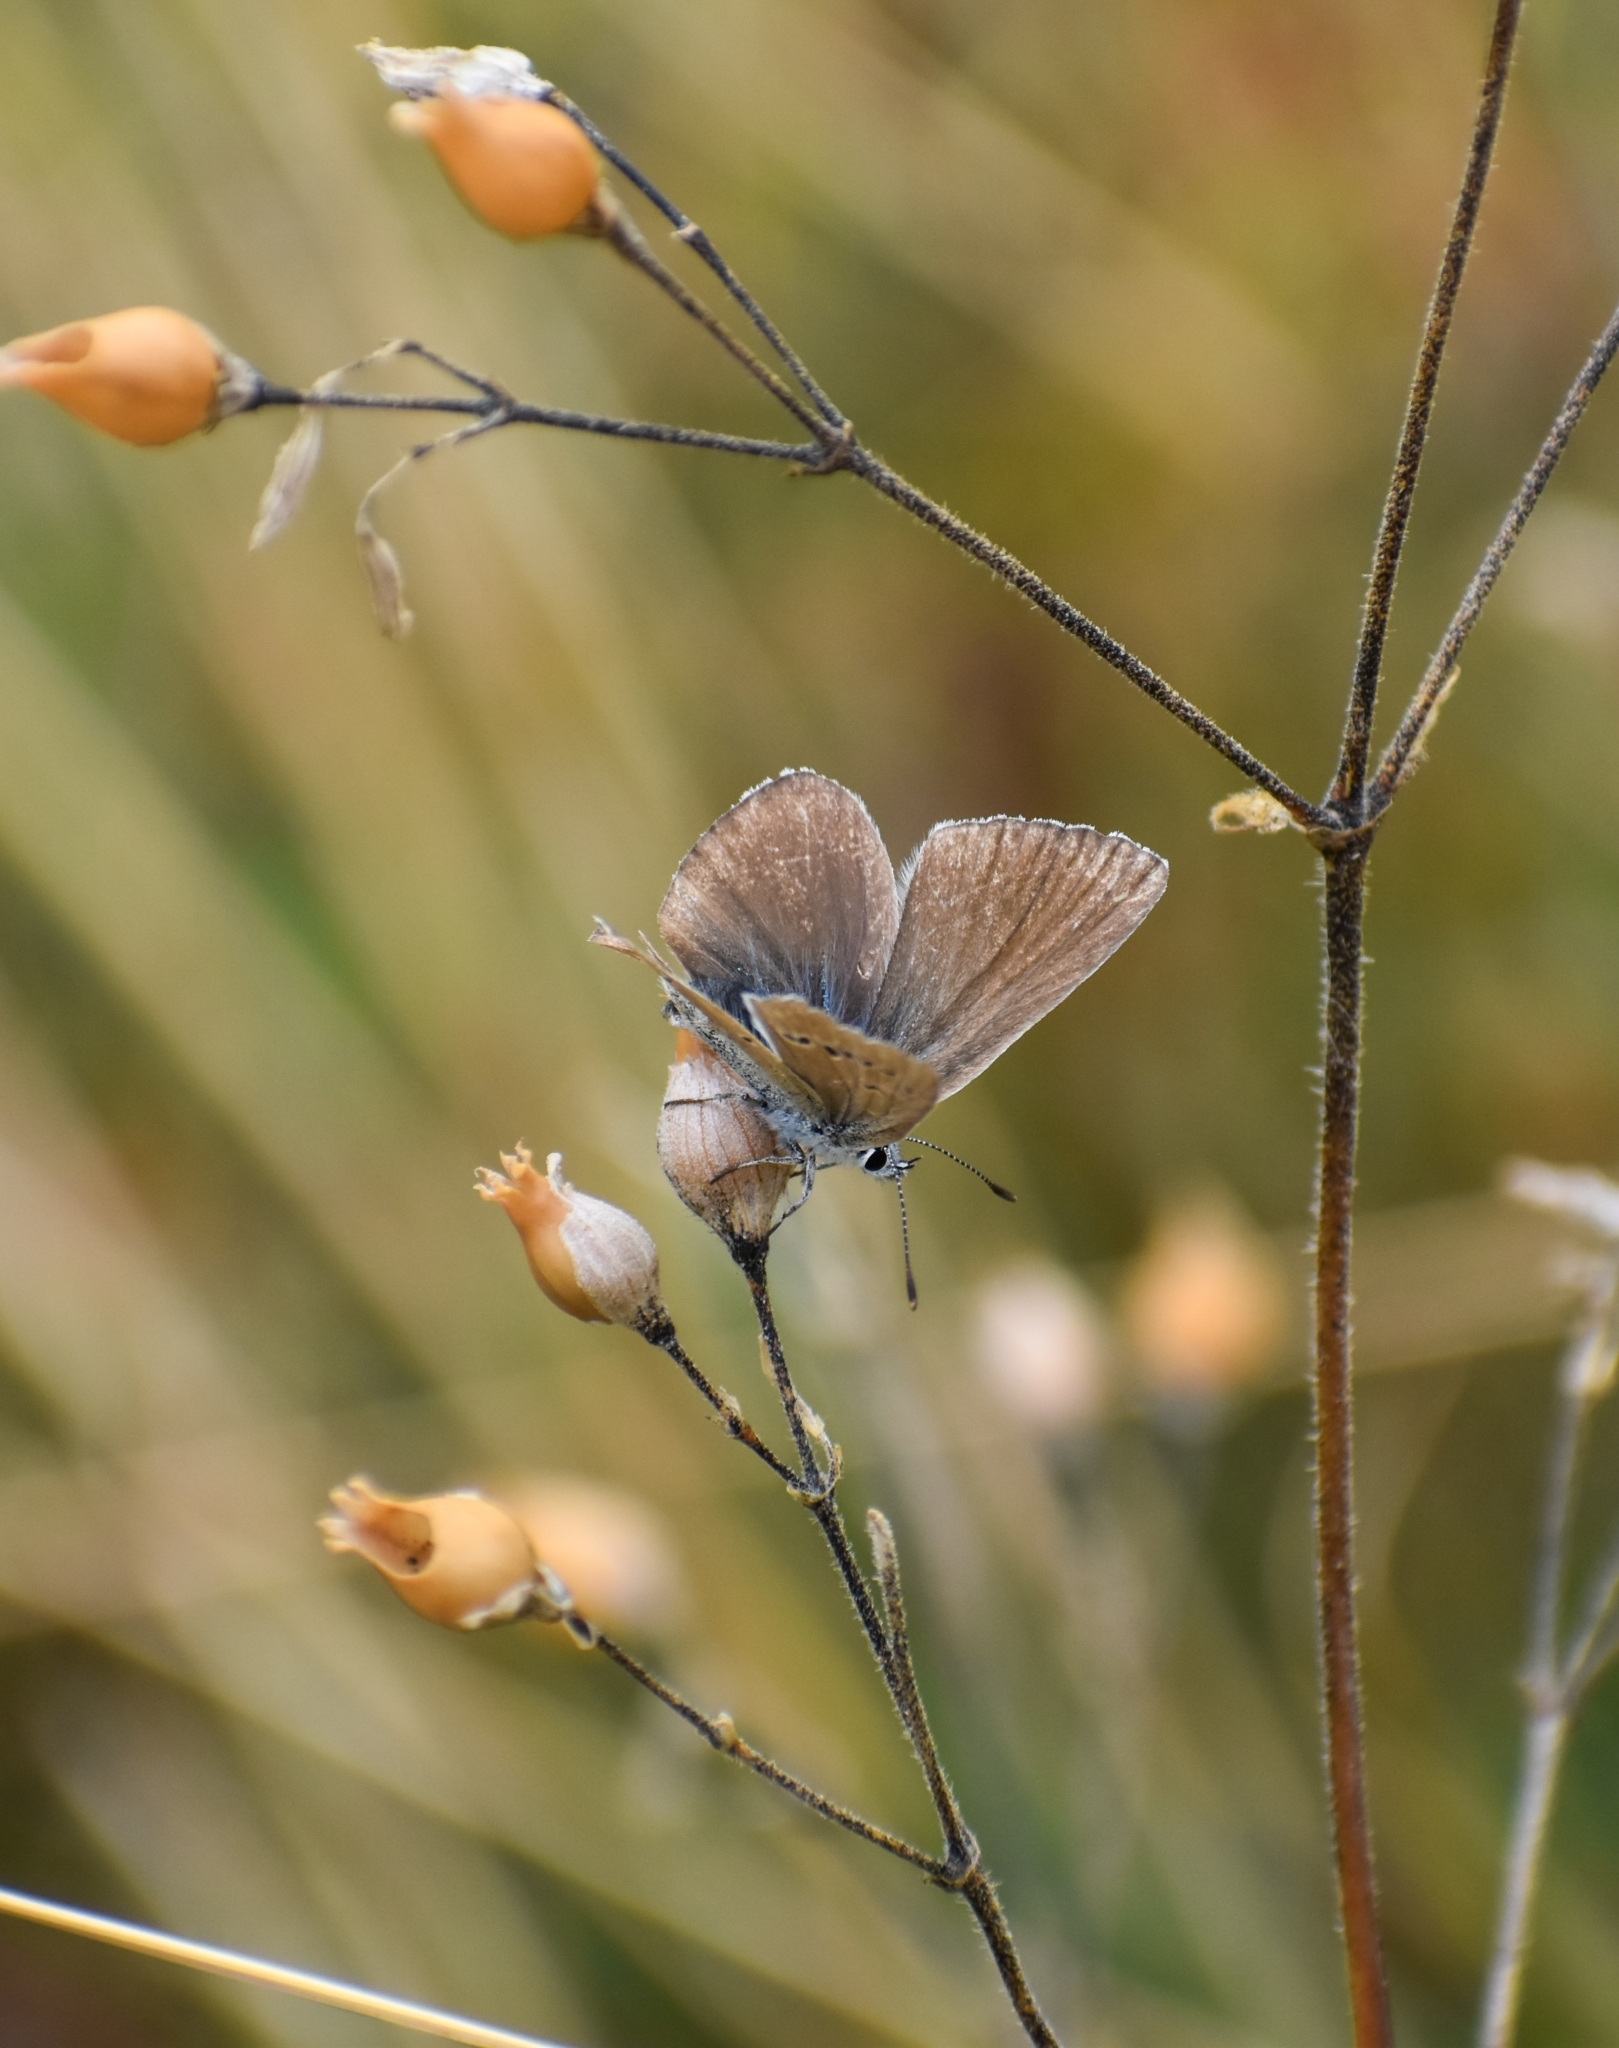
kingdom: Animalia
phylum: Arthropoda
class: Insecta
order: Lepidoptera
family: Lycaenidae
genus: Agrodiaetus
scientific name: Agrodiaetus damon
